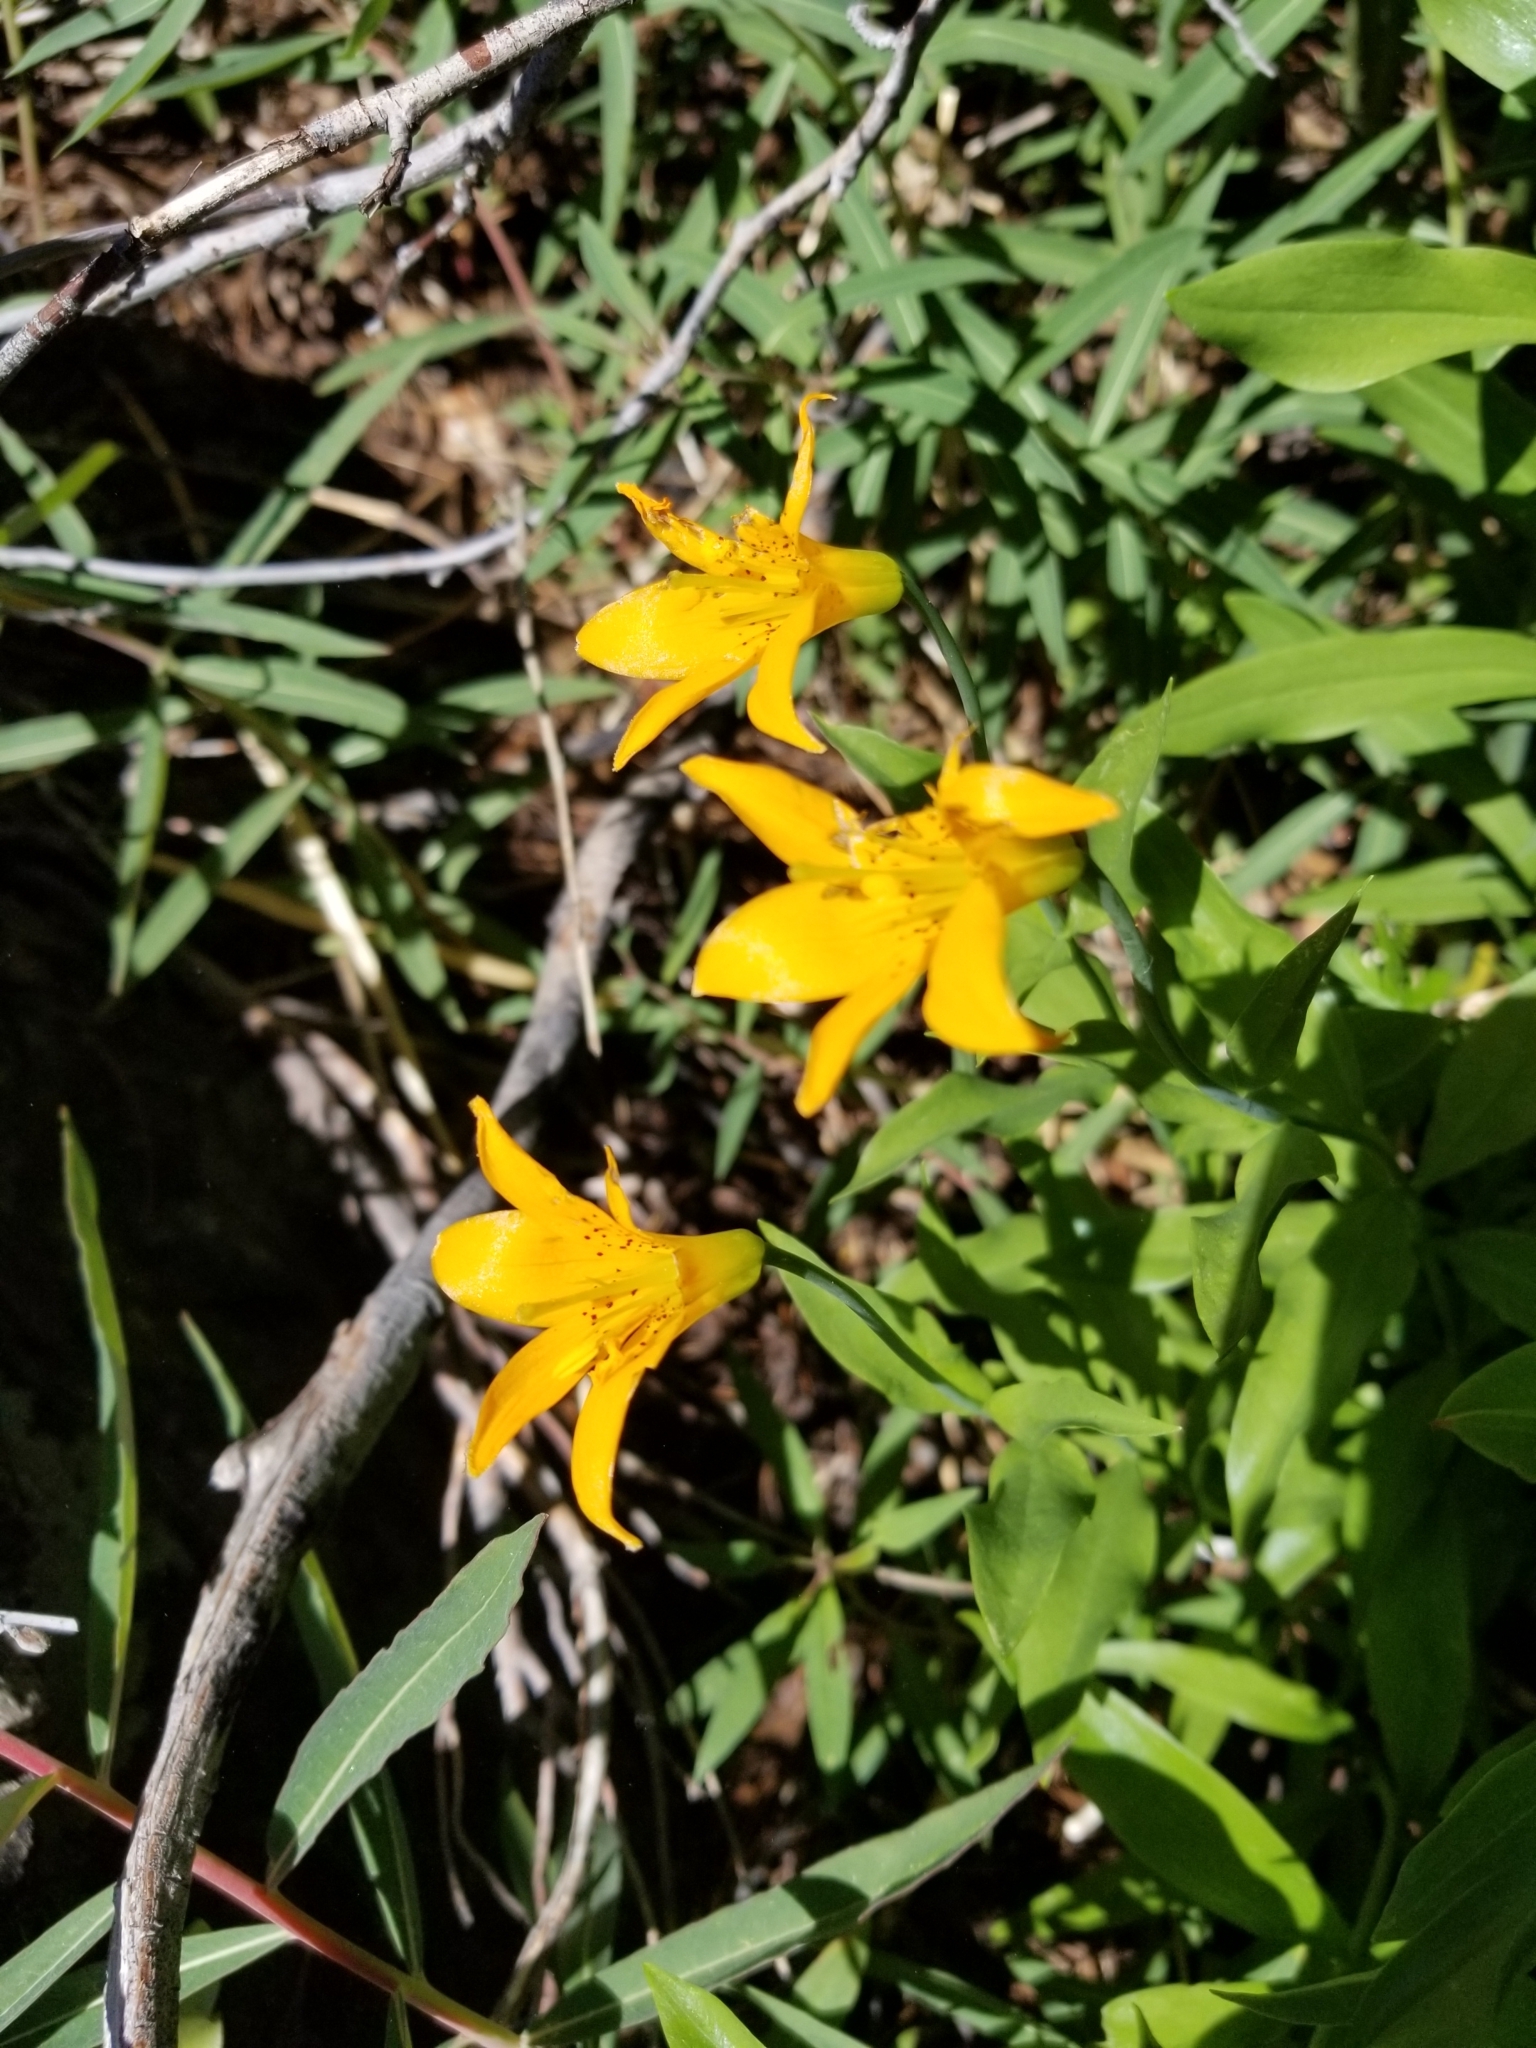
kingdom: Plantae
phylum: Tracheophyta
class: Liliopsida
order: Liliales
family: Liliaceae
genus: Lilium
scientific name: Lilium parvum
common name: Alpine lily
